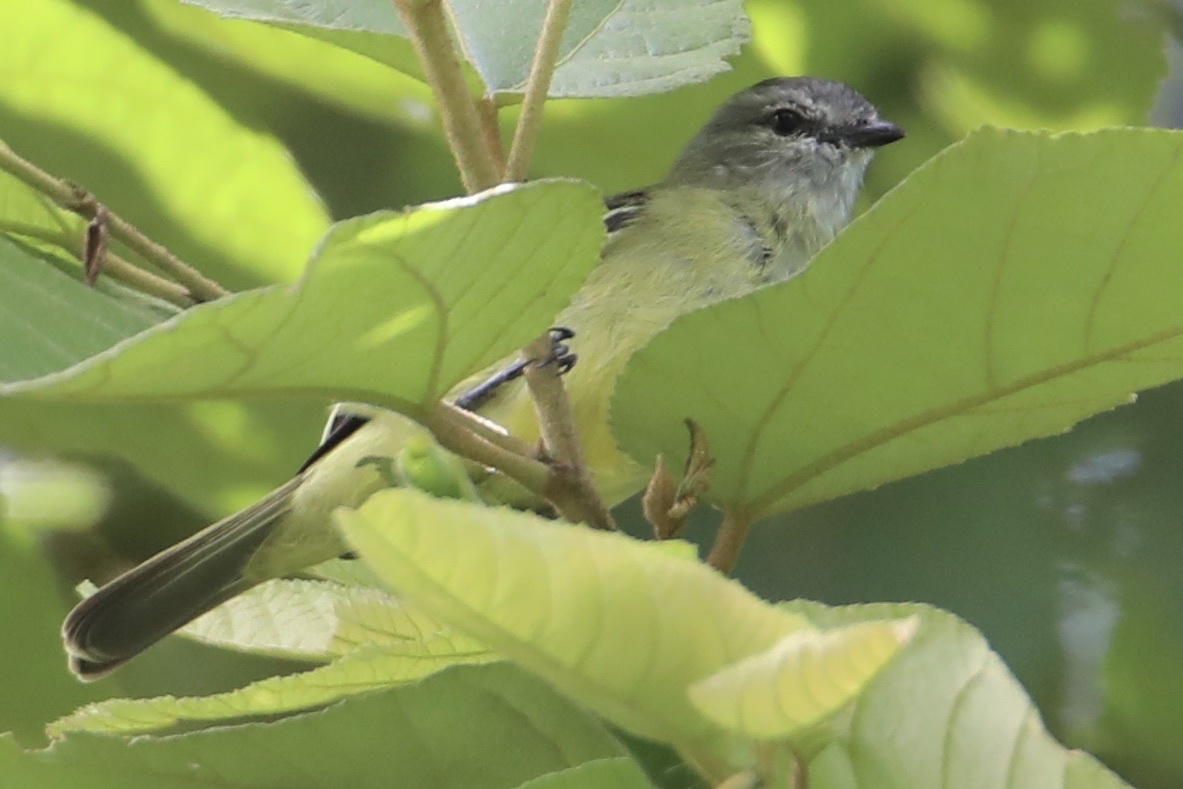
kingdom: Animalia
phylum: Chordata
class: Aves
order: Passeriformes
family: Tyrannidae
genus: Tyrannulus
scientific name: Tyrannulus elatus
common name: Yellow-crowned tyrannulet
